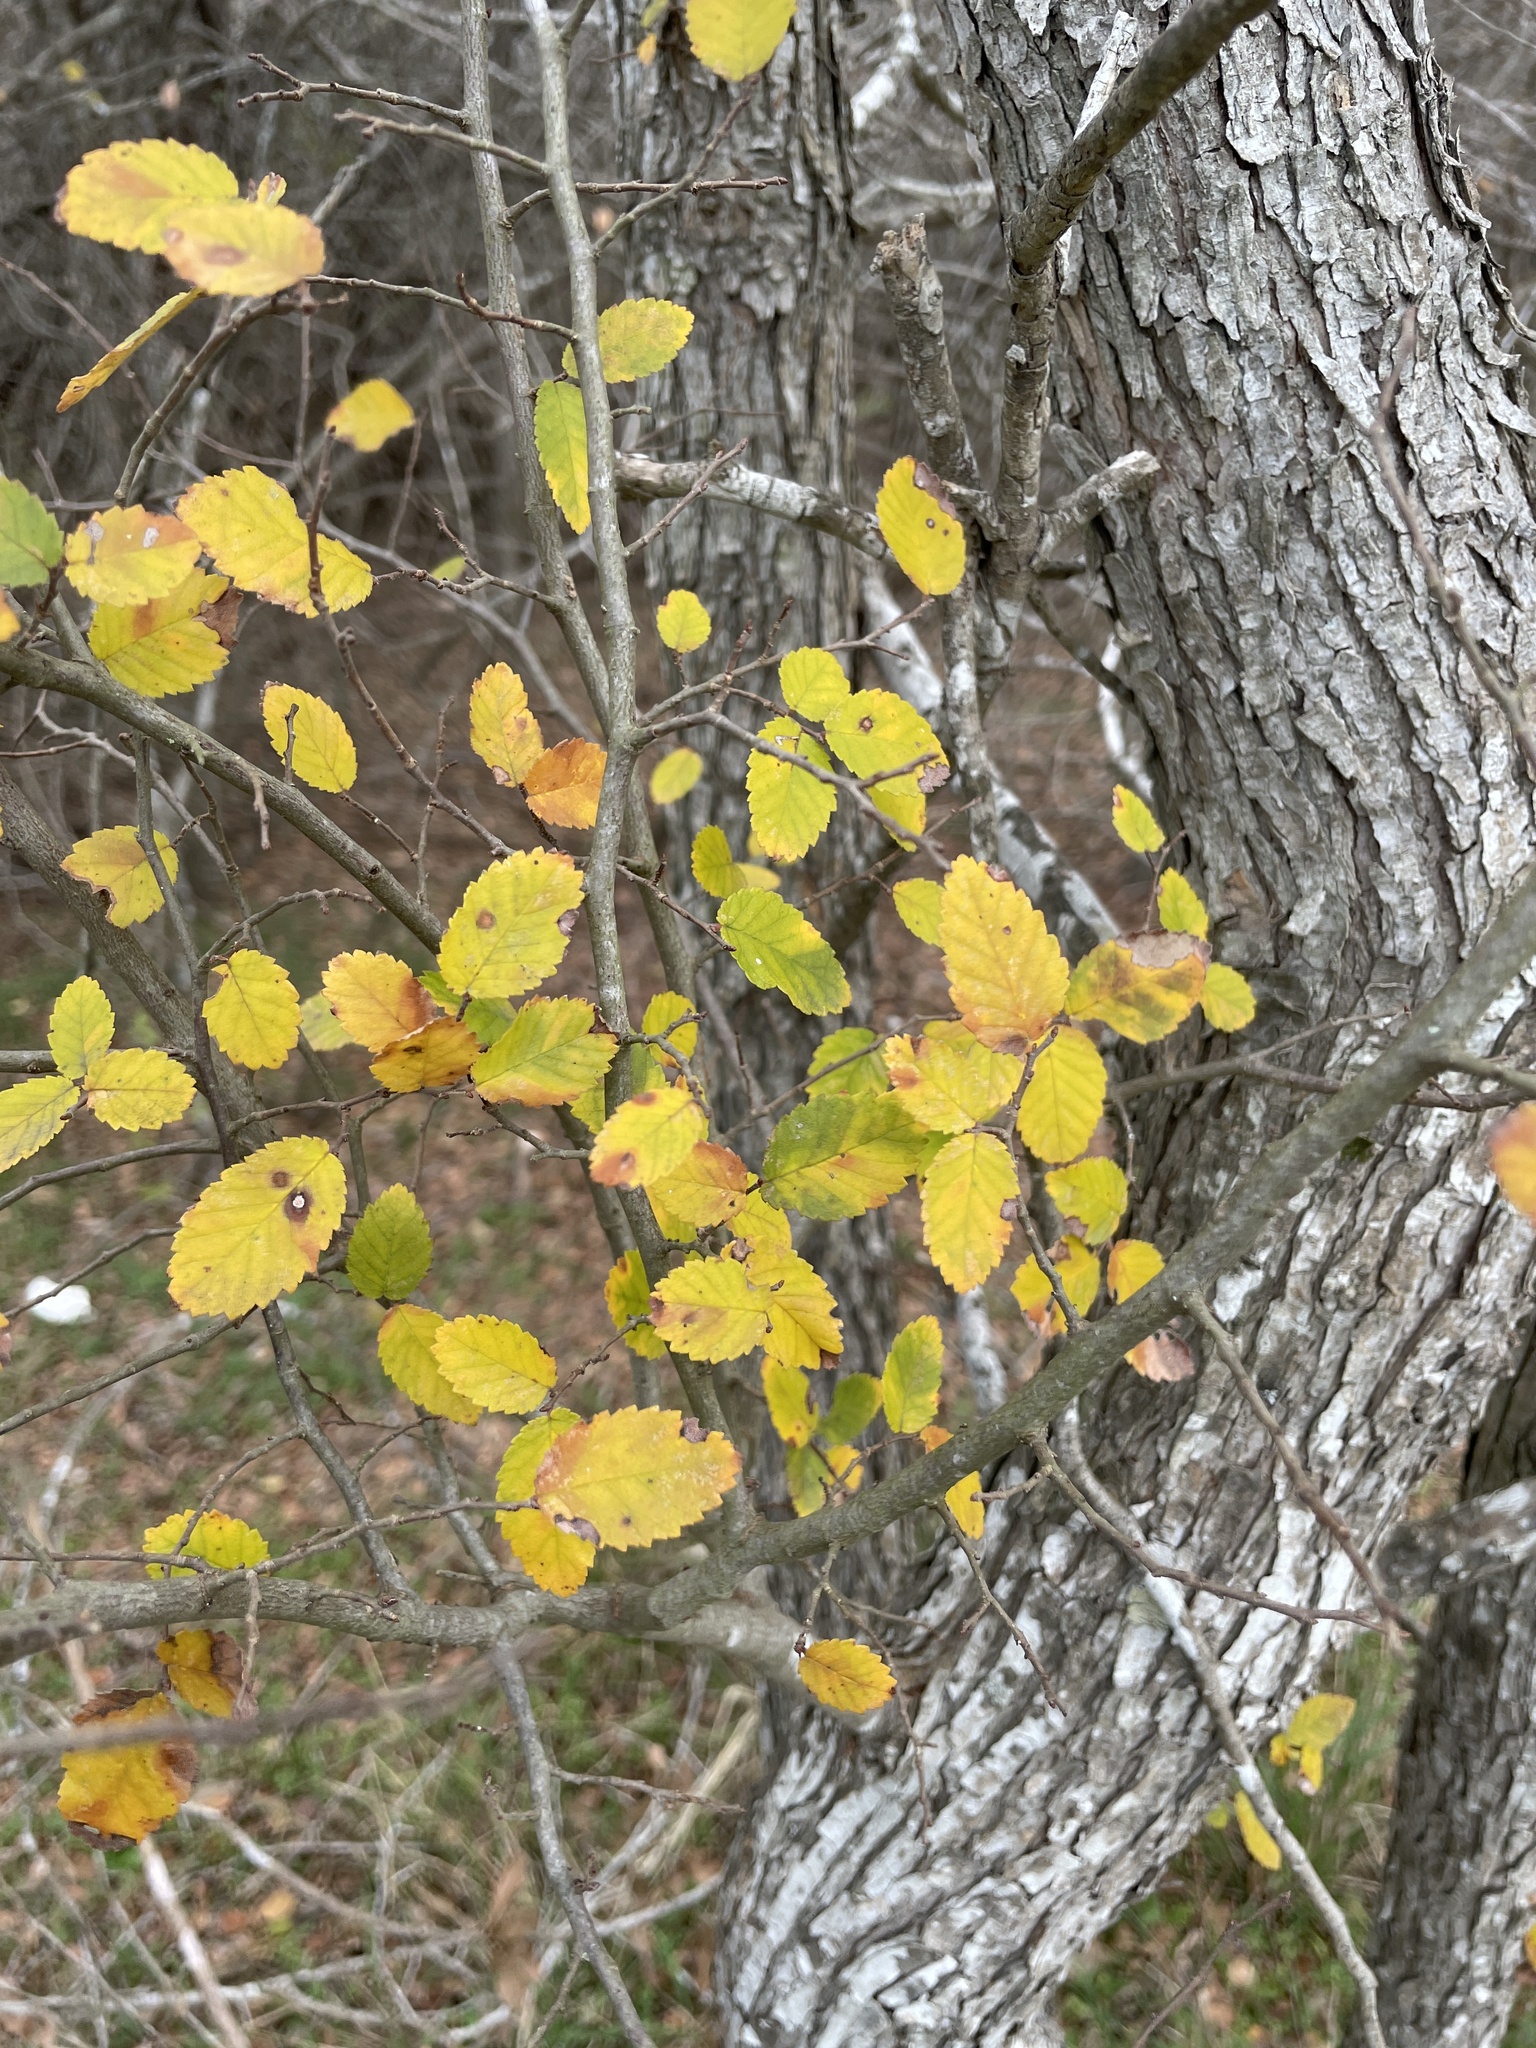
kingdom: Plantae
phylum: Tracheophyta
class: Magnoliopsida
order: Rosales
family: Ulmaceae
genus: Ulmus
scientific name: Ulmus crassifolia
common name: Basket elm
